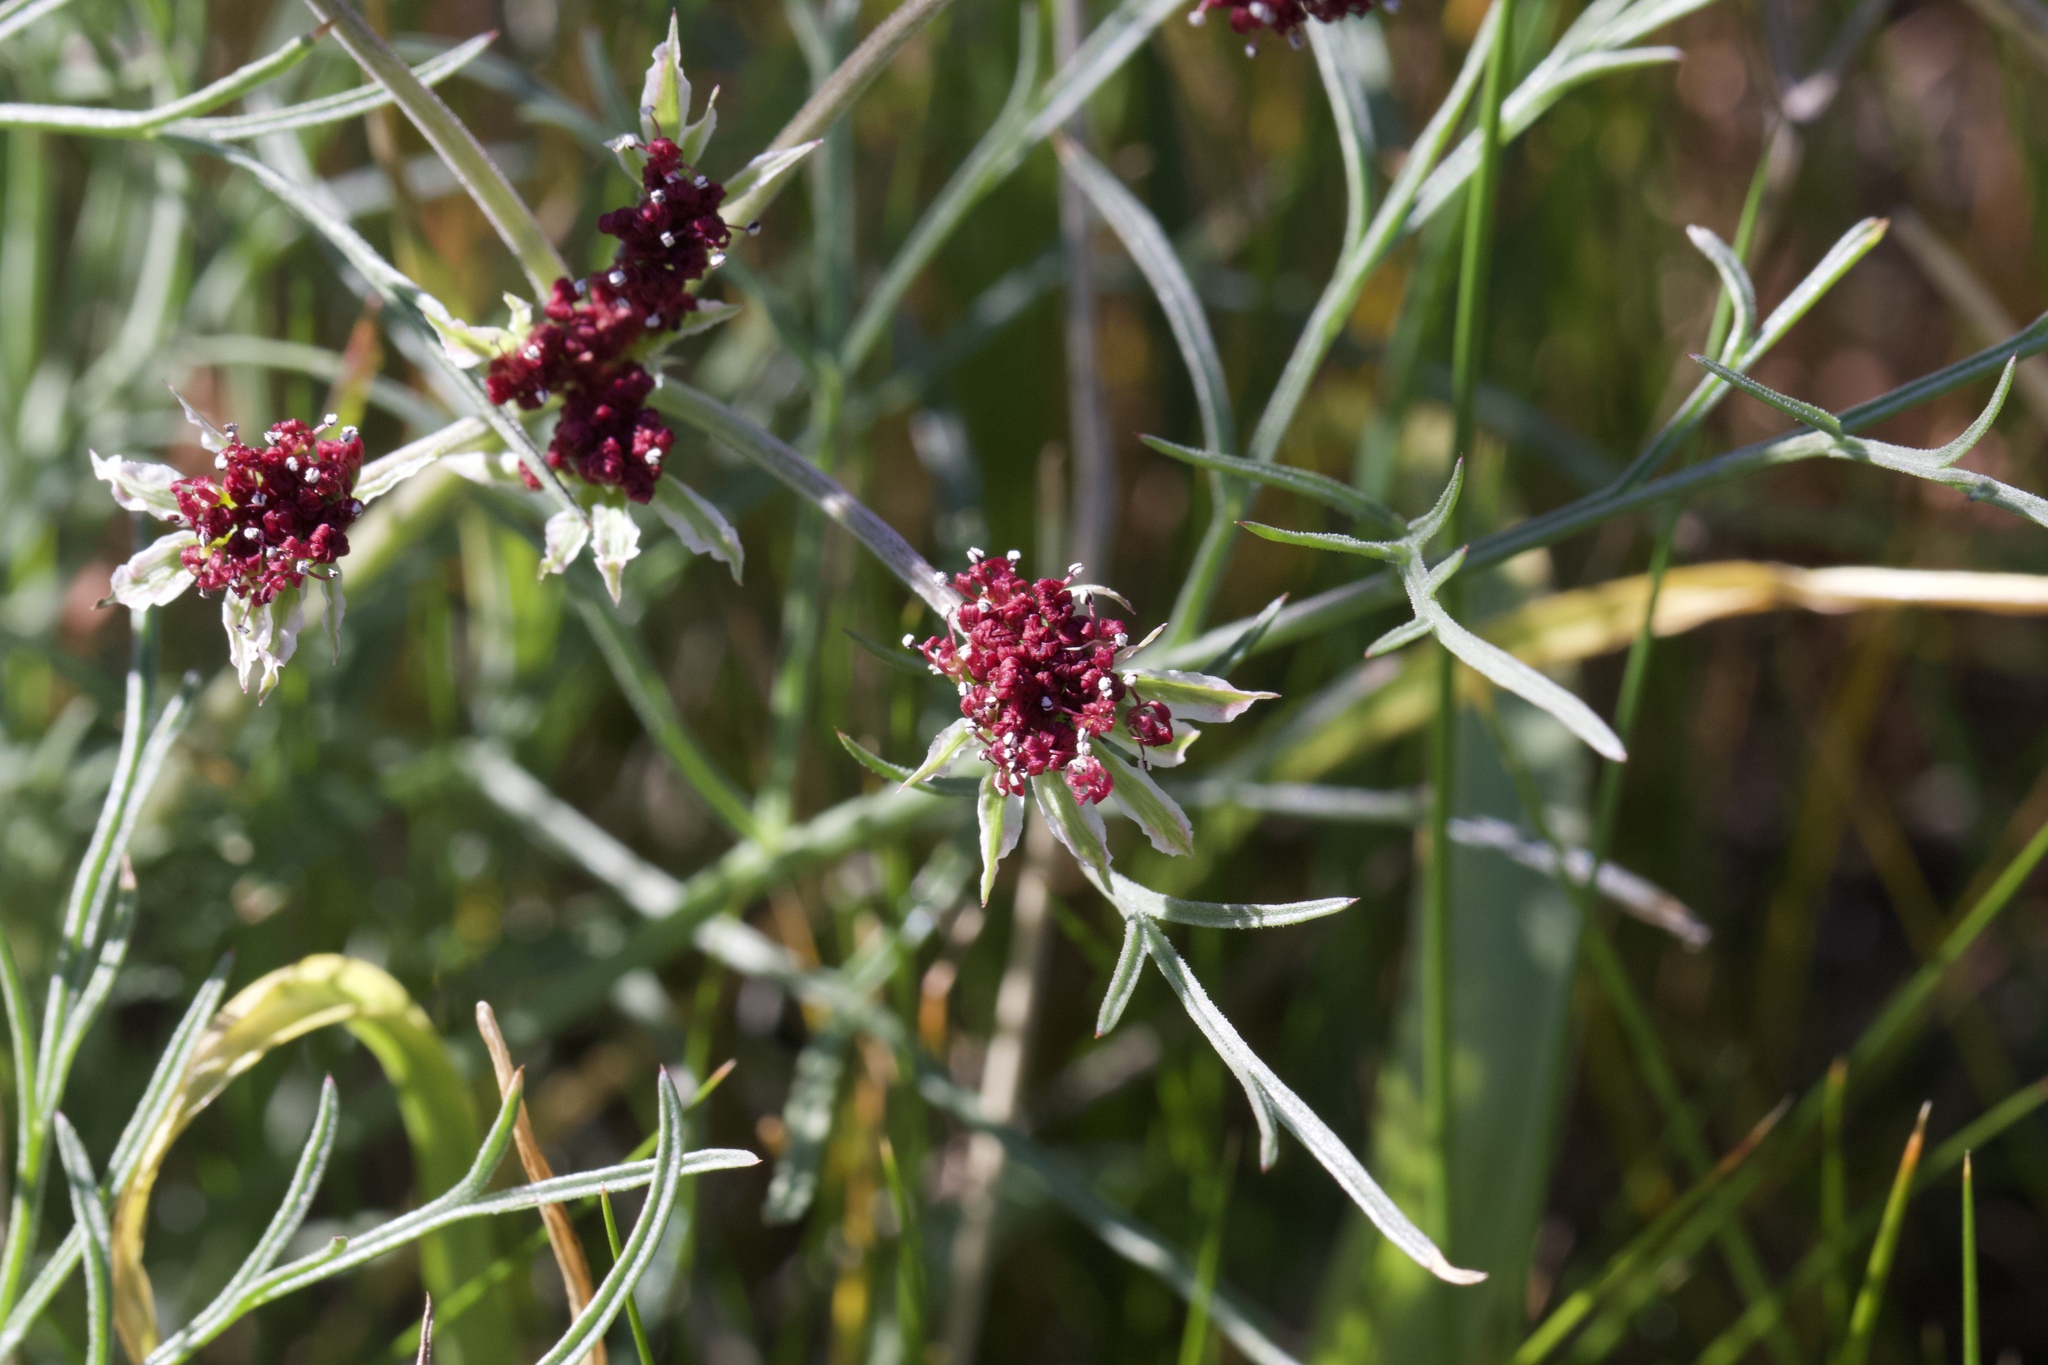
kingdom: Plantae
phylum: Tracheophyta
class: Magnoliopsida
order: Apiales
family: Apiaceae
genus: Lomatium
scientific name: Lomatium hooveri
